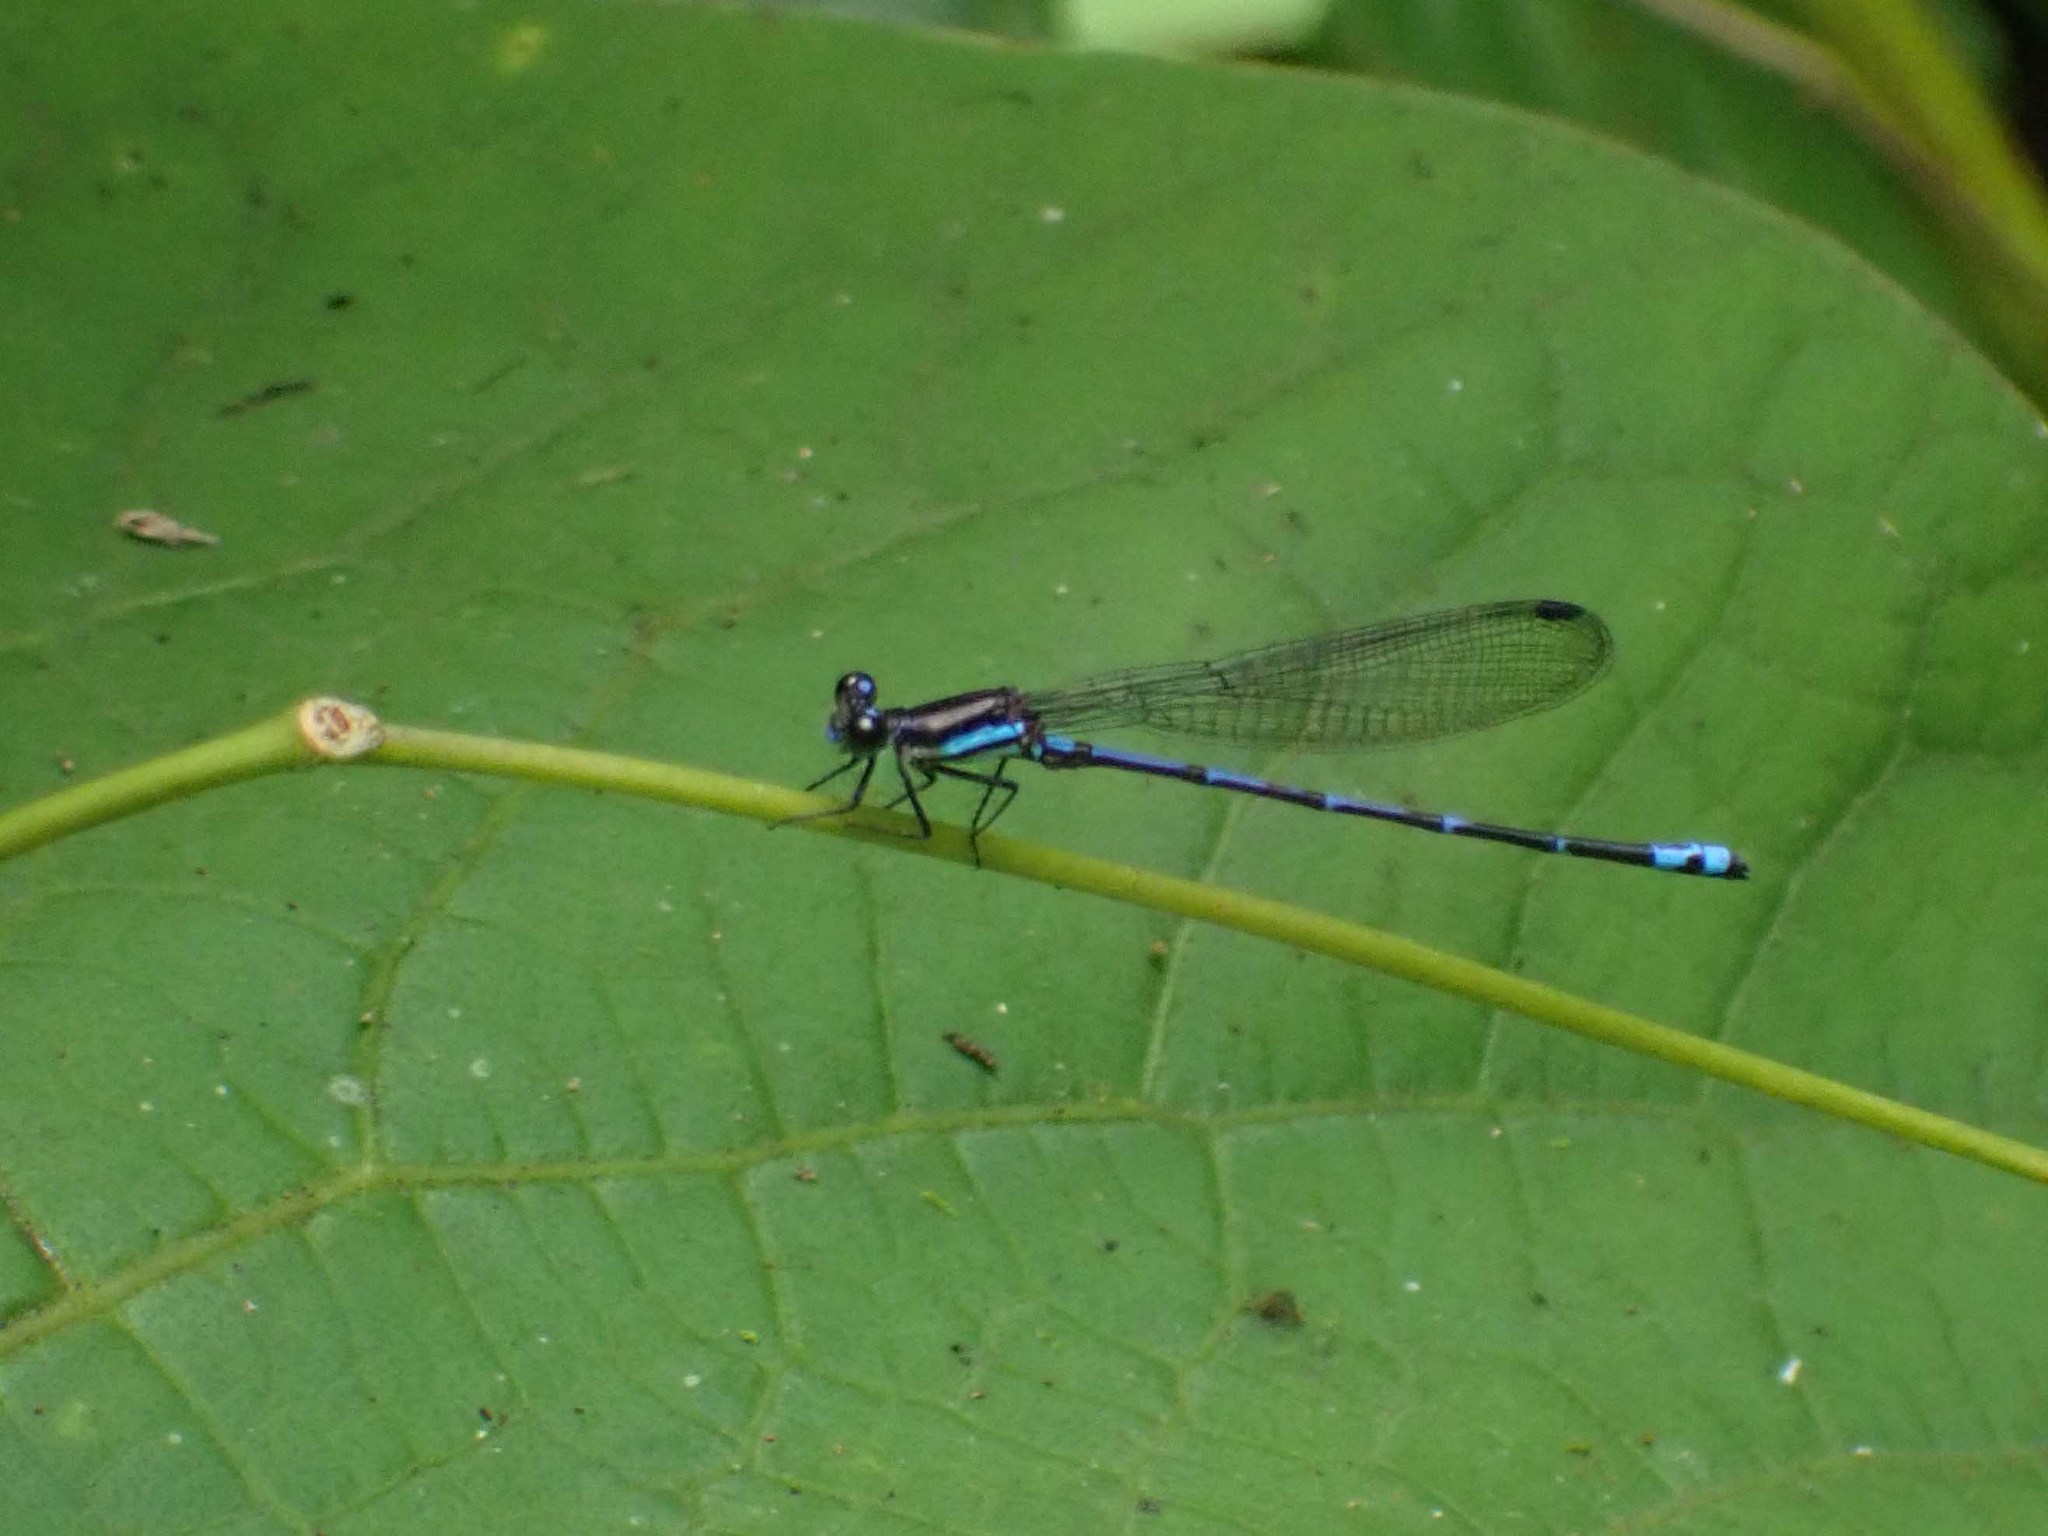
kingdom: Animalia
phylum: Arthropoda
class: Insecta
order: Odonata
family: Coenagrionidae
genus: Argia
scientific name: Argia adamsi
